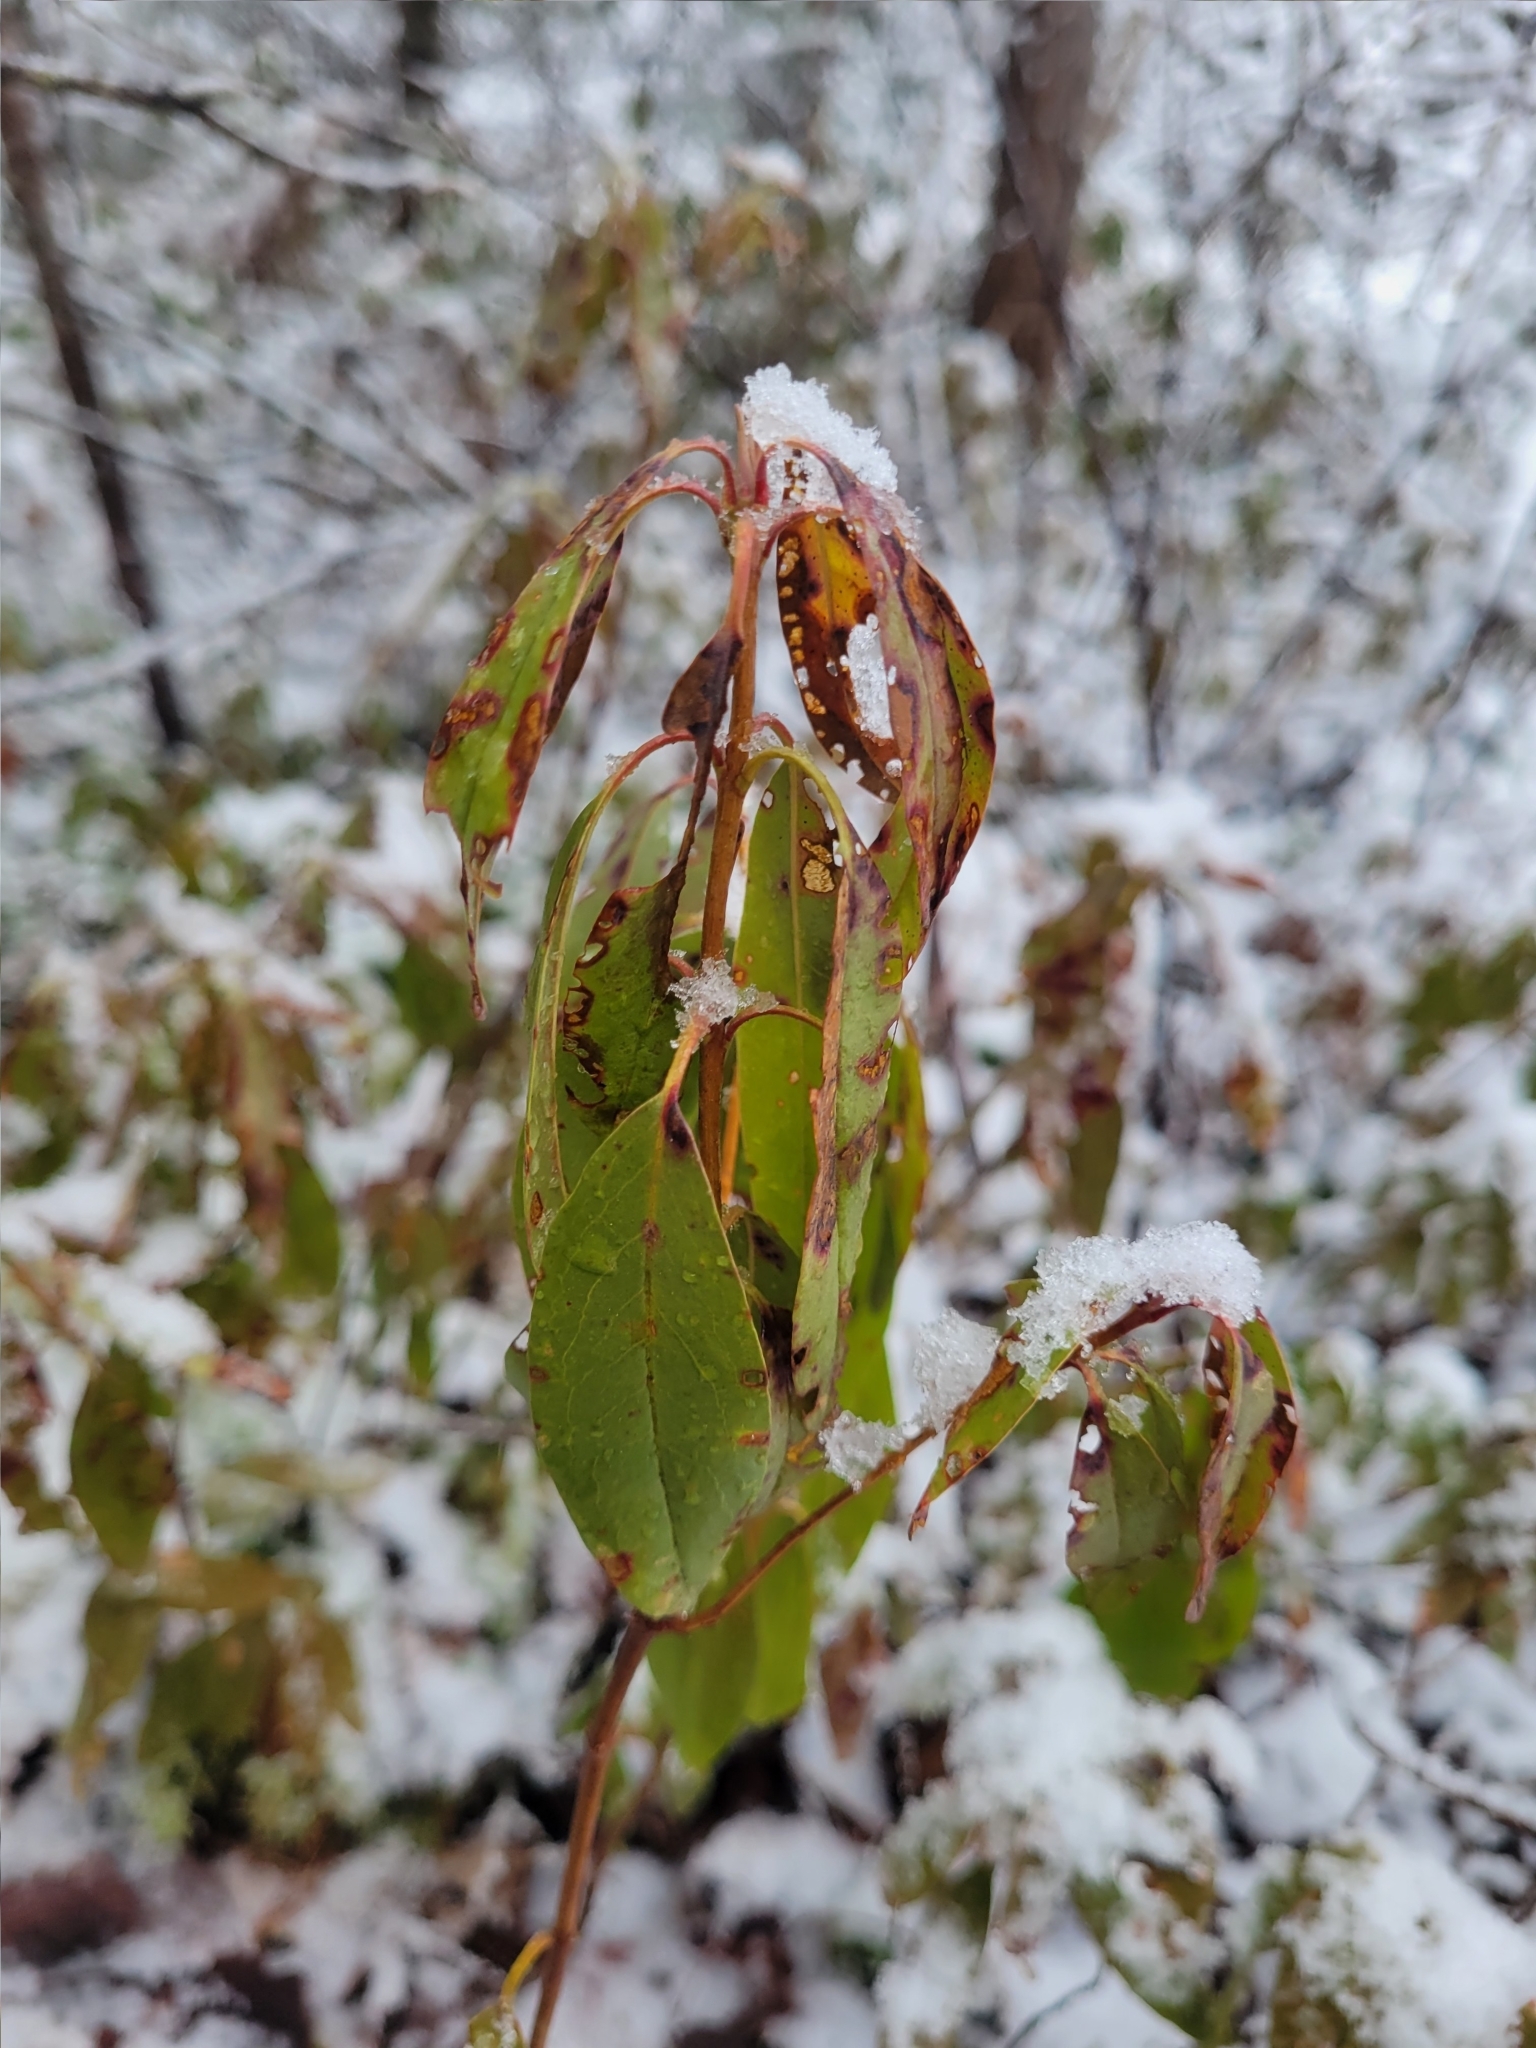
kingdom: Plantae
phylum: Tracheophyta
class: Magnoliopsida
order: Ericales
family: Ericaceae
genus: Kalmia
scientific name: Kalmia angustifolia
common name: Sheep-laurel
